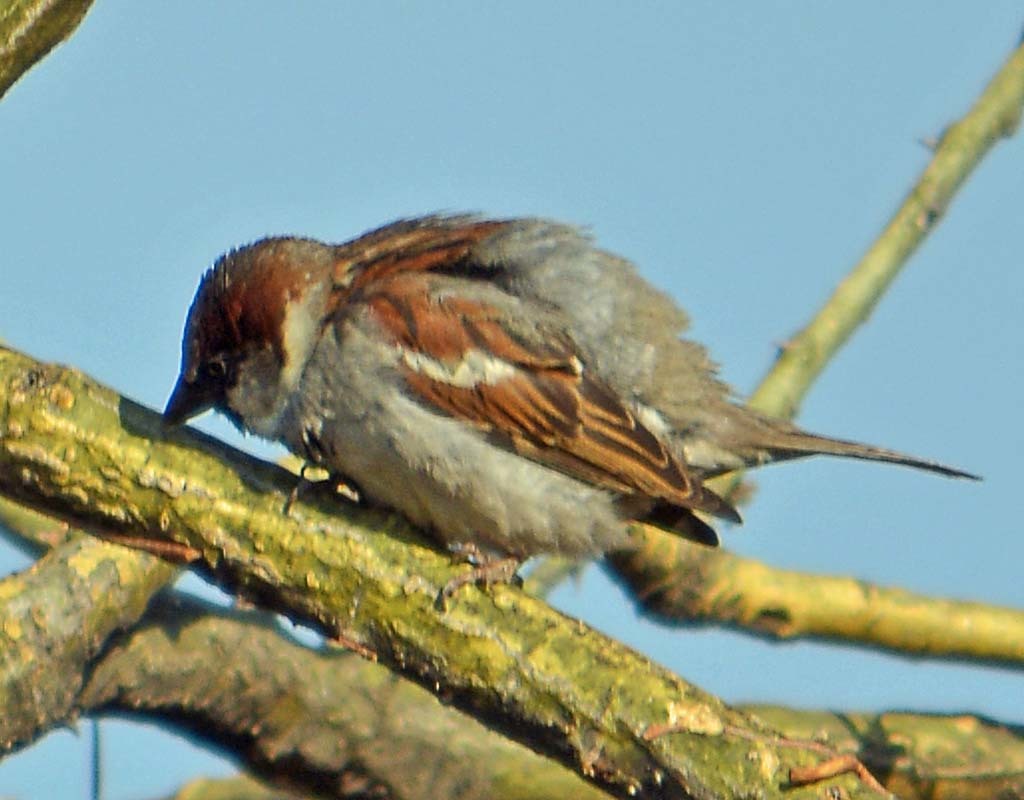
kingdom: Animalia
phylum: Chordata
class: Aves
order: Passeriformes
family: Passeridae
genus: Passer
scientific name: Passer domesticus
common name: House sparrow
